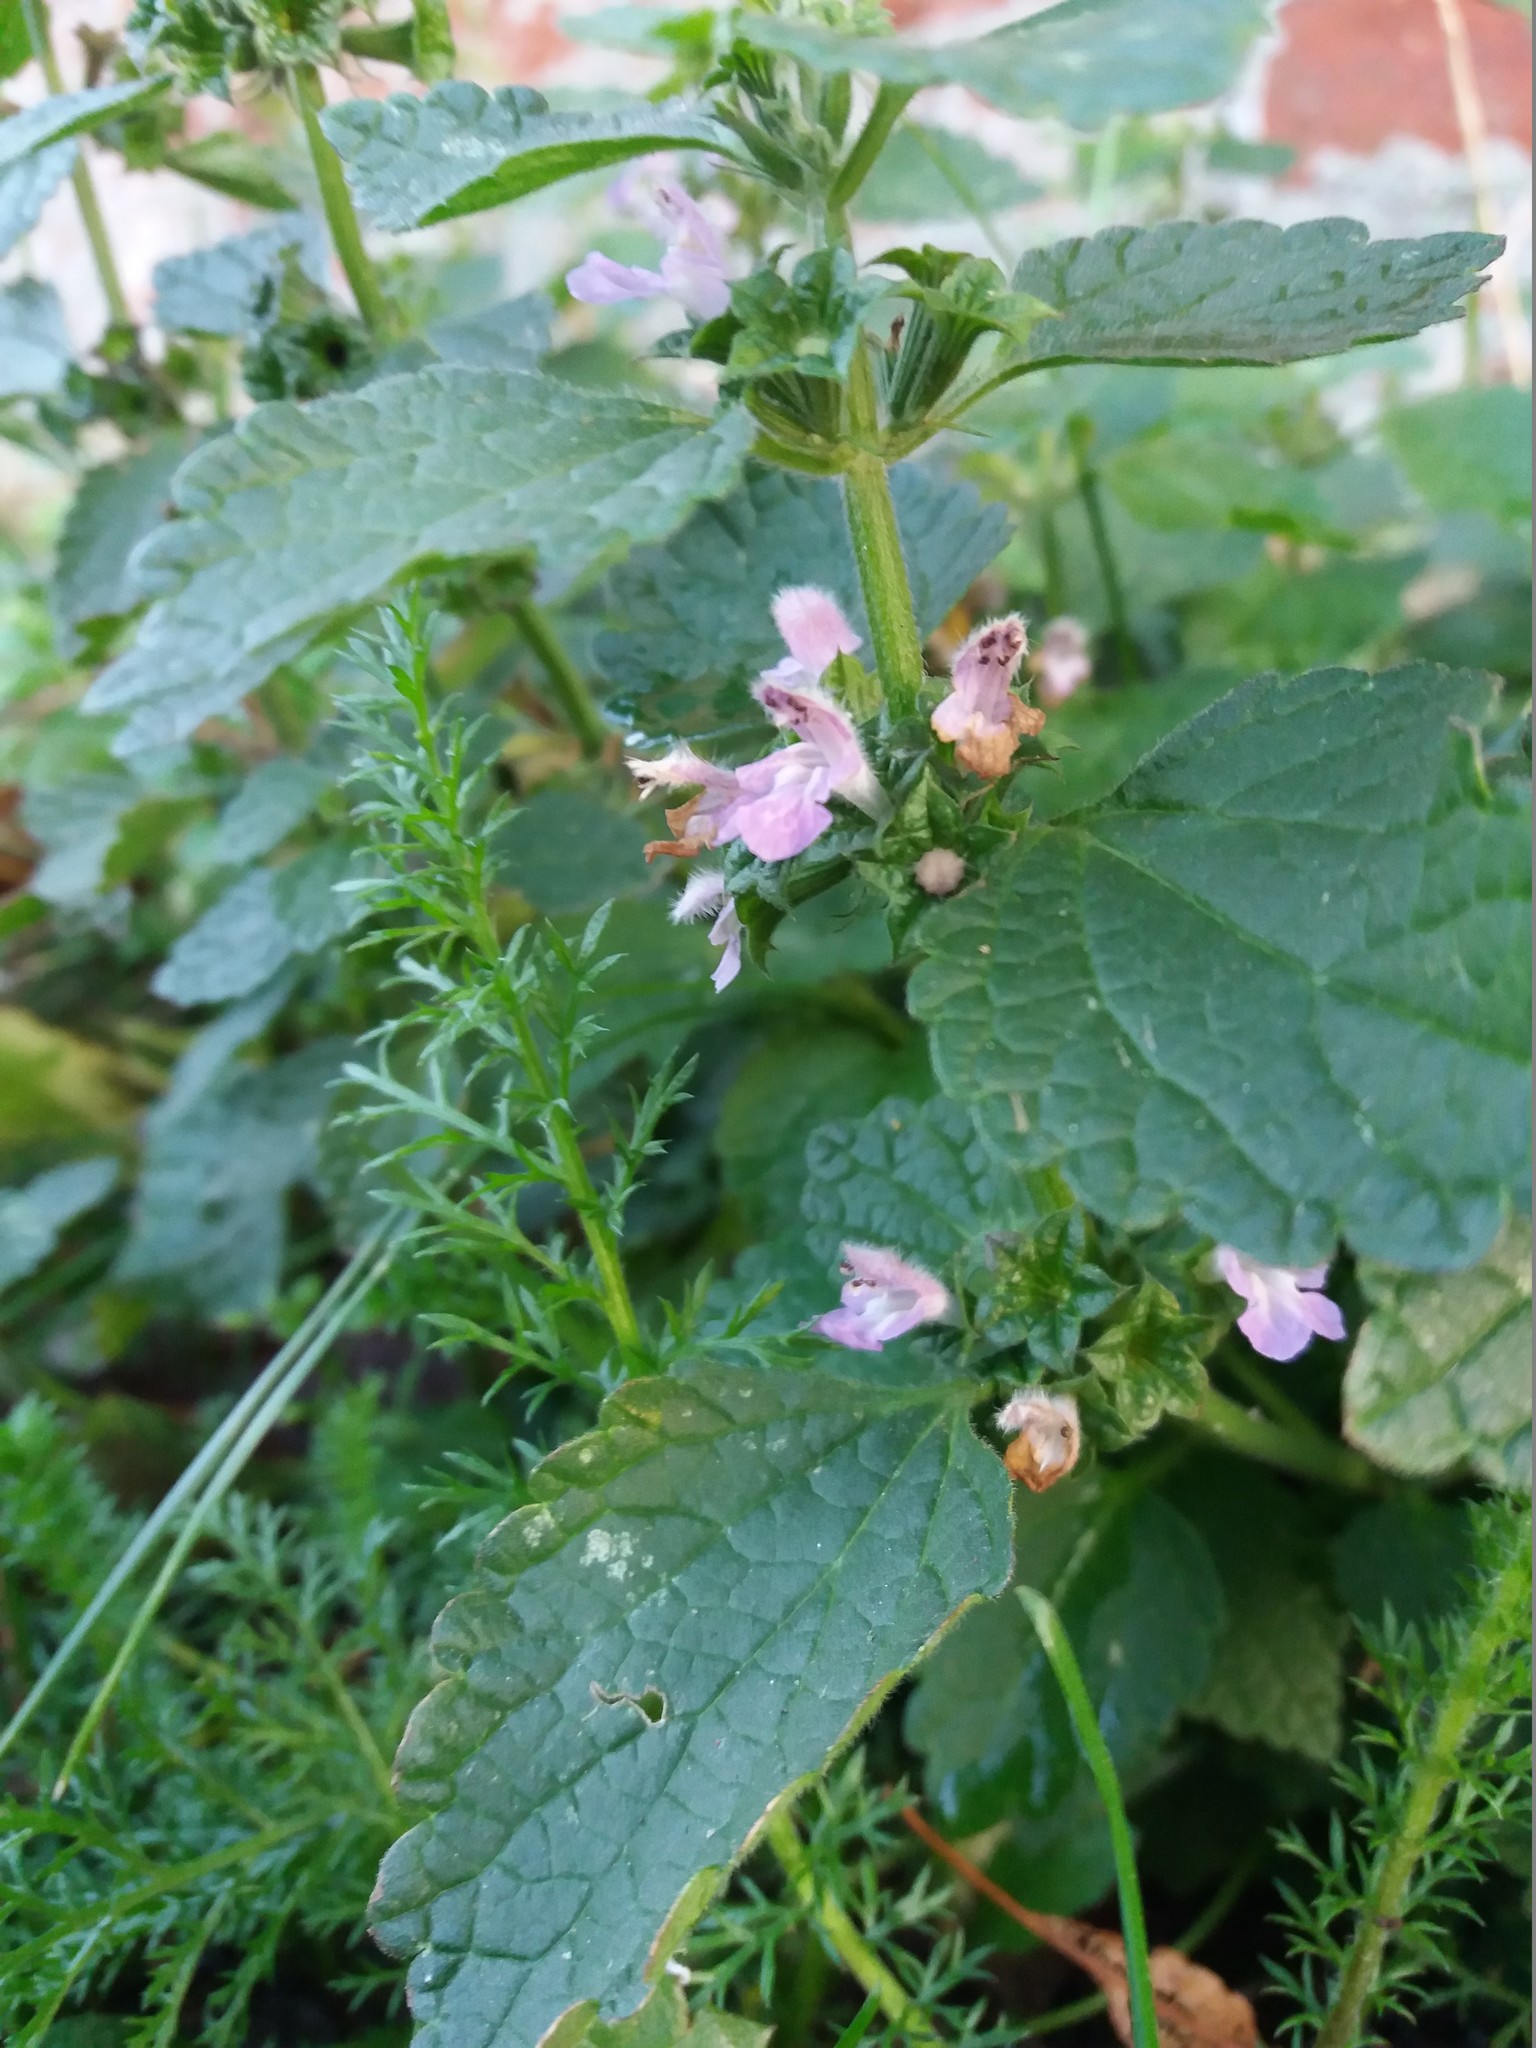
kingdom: Plantae
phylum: Tracheophyta
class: Magnoliopsida
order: Lamiales
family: Lamiaceae
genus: Ballota
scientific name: Ballota nigra
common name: Black horehound
